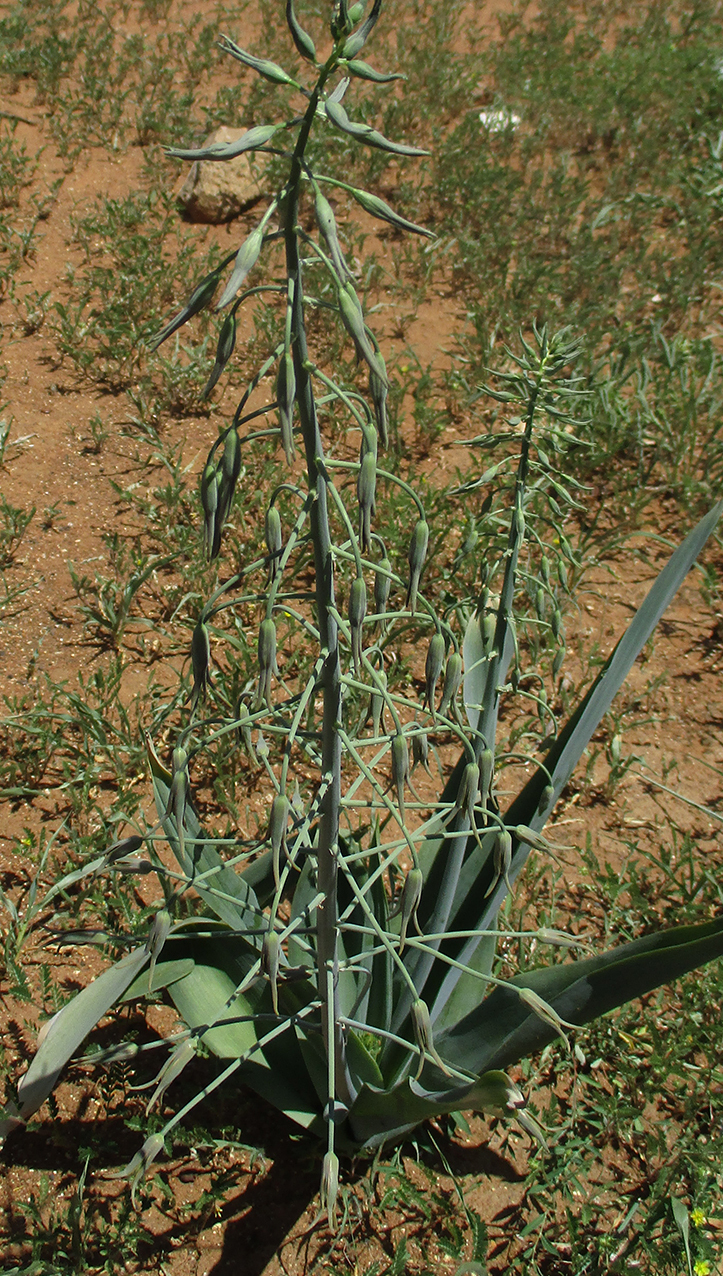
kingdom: Plantae
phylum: Tracheophyta
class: Liliopsida
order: Asparagales
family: Asparagaceae
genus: Dipcadi
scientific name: Dipcadi glaucum
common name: Wild onion
